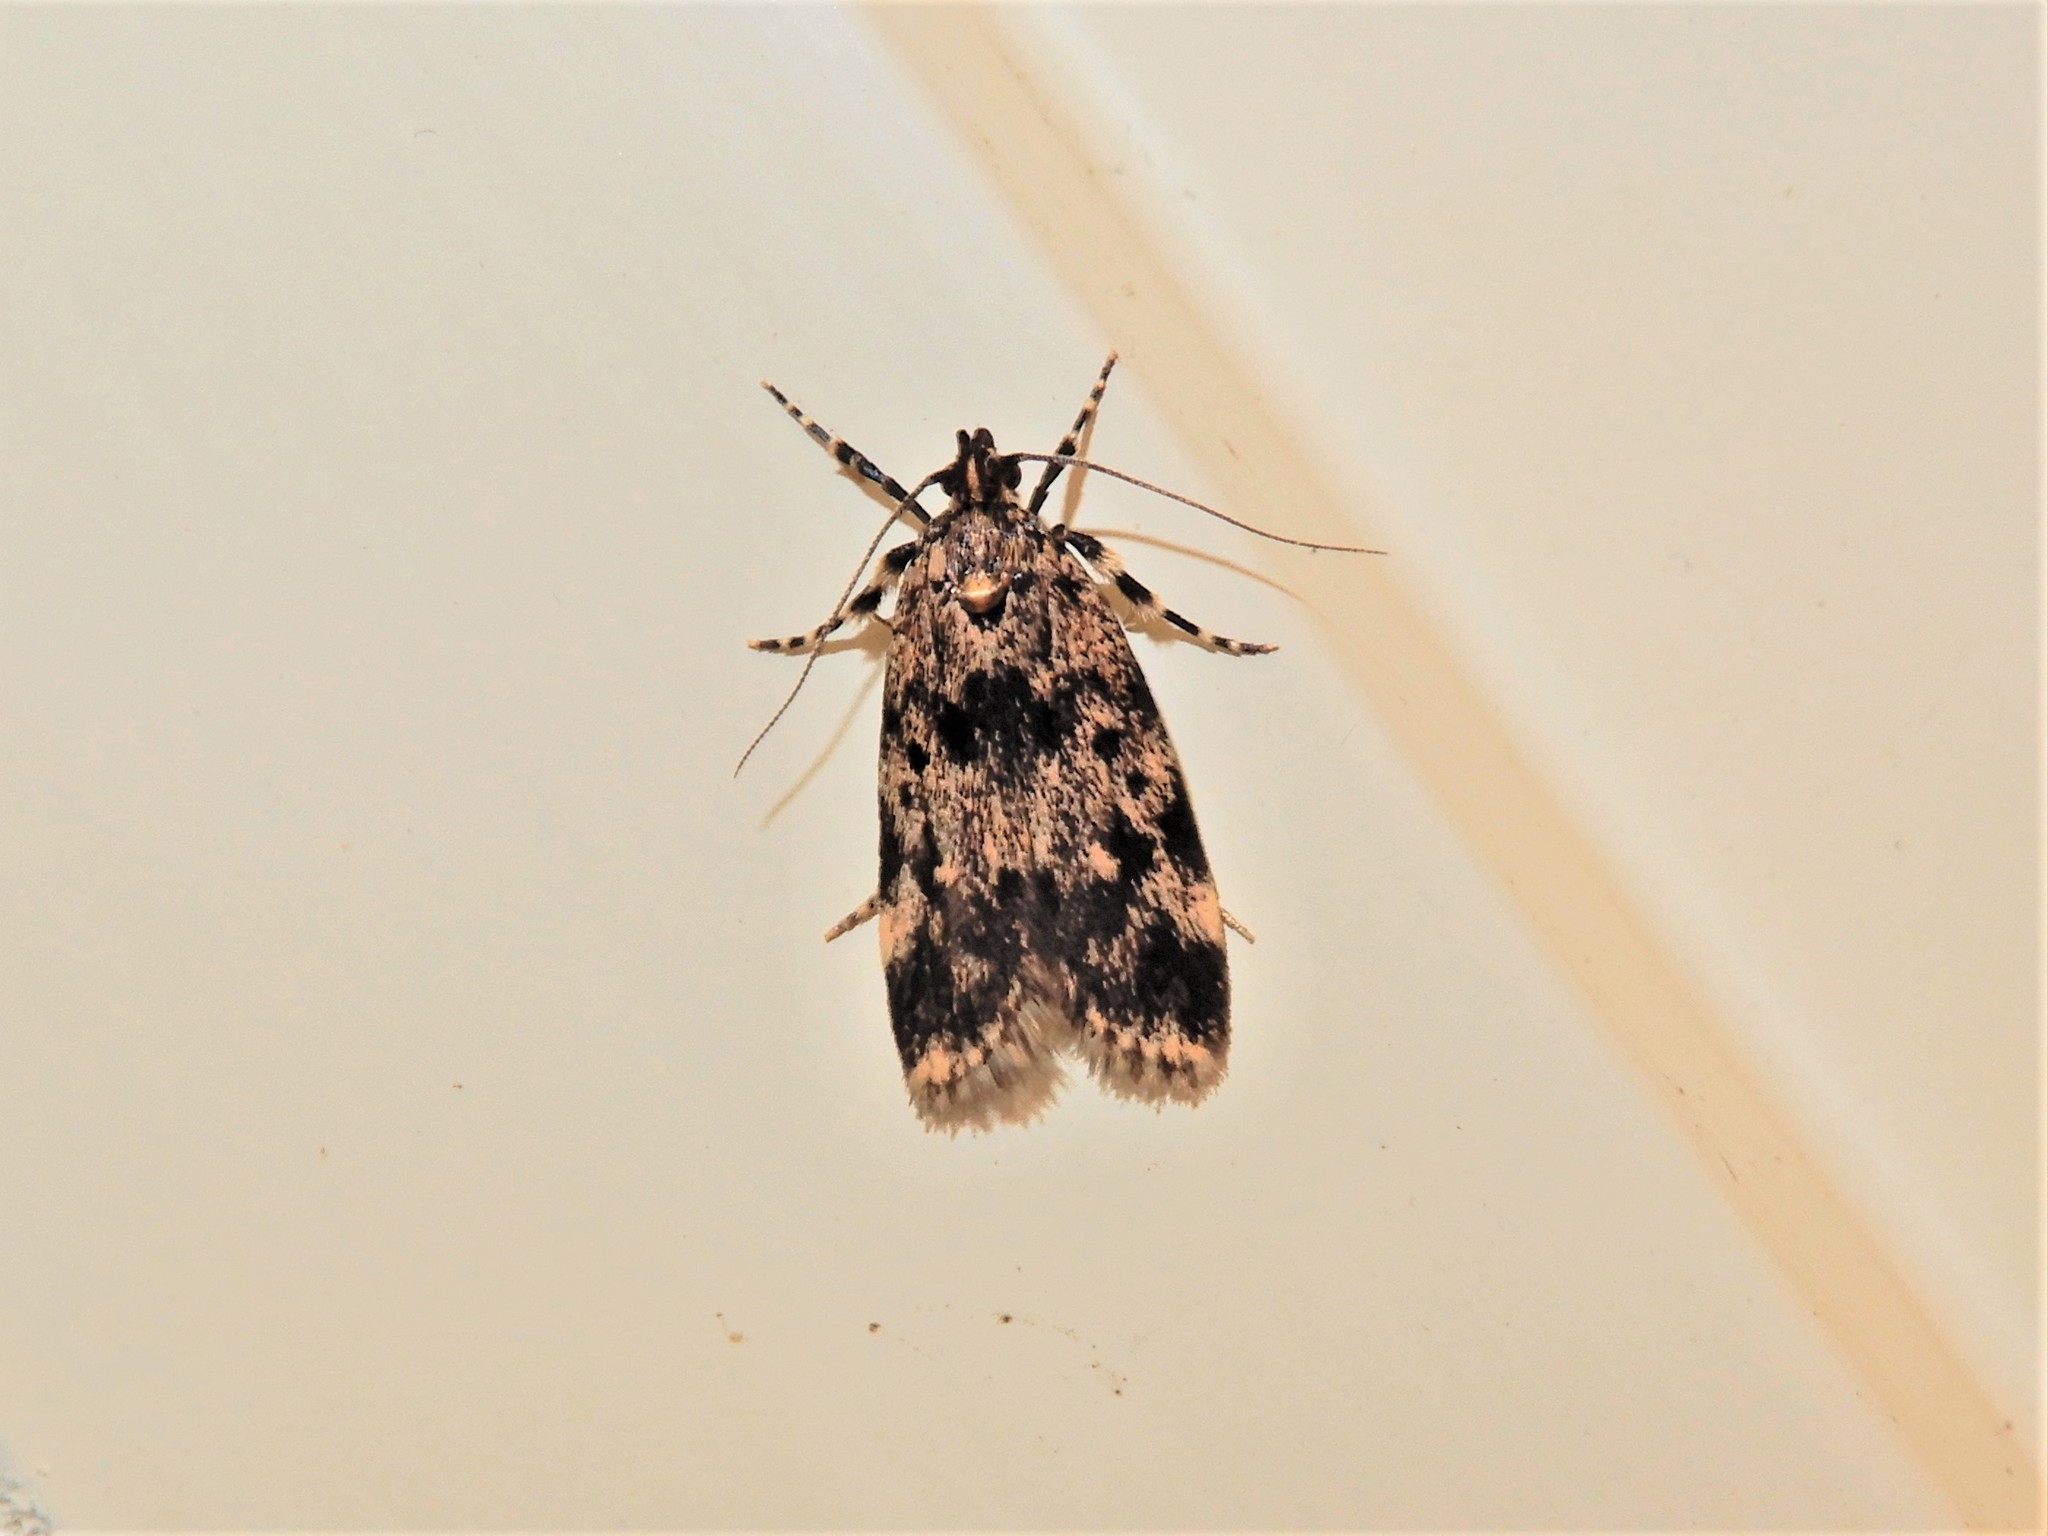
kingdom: Animalia
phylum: Arthropoda
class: Insecta
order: Lepidoptera
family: Oecophoridae
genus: Barea
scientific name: Barea codrella
